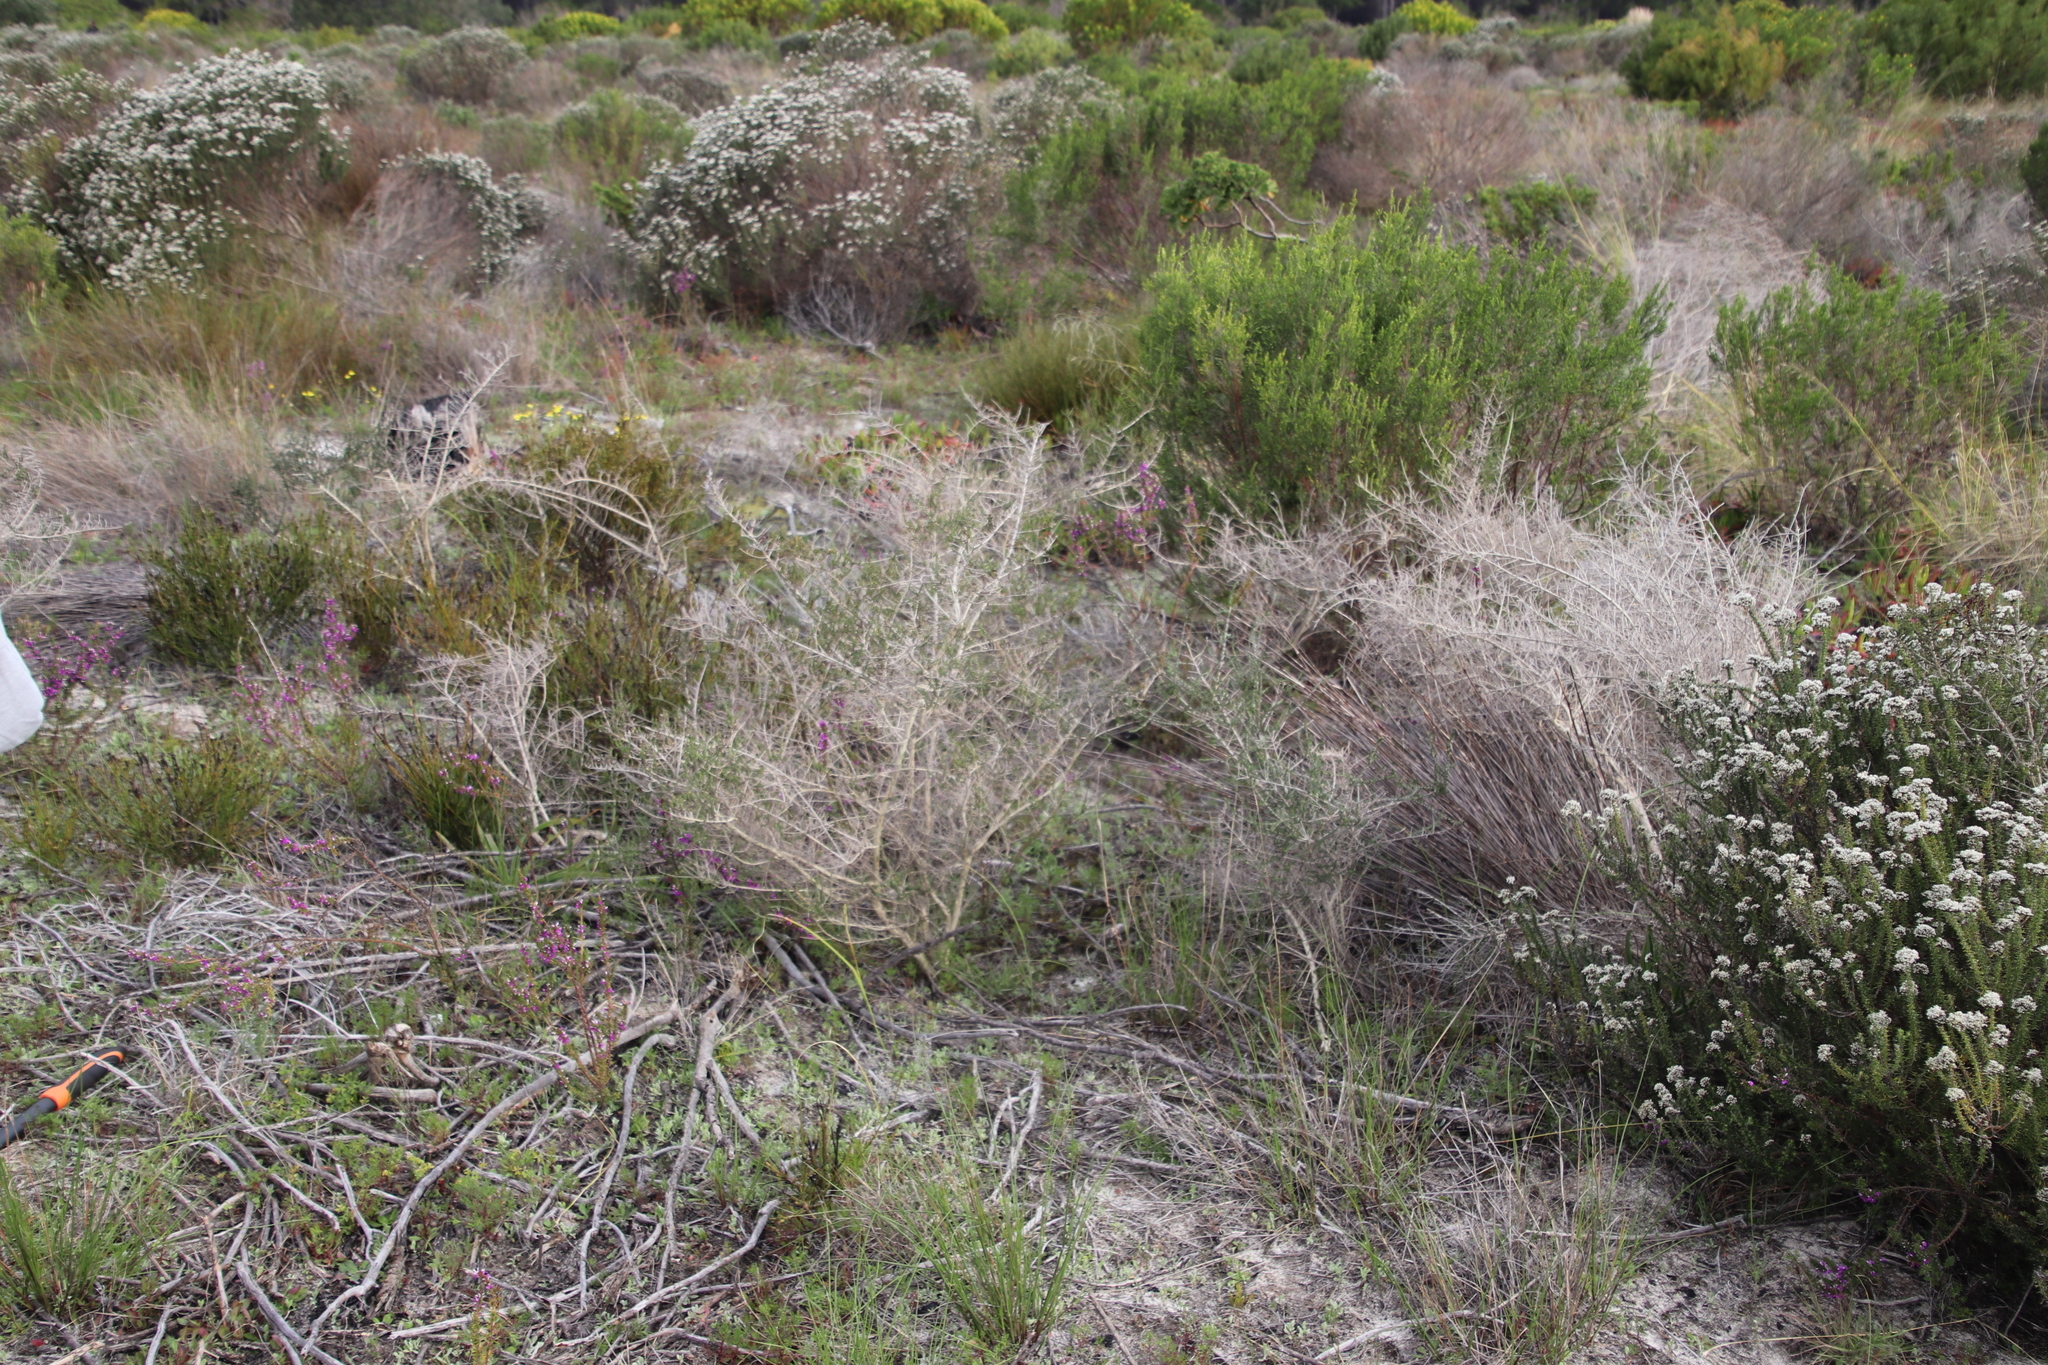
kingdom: Plantae
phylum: Tracheophyta
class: Magnoliopsida
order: Fabales
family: Fabaceae
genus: Aspalathus
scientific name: Aspalathus hispida
